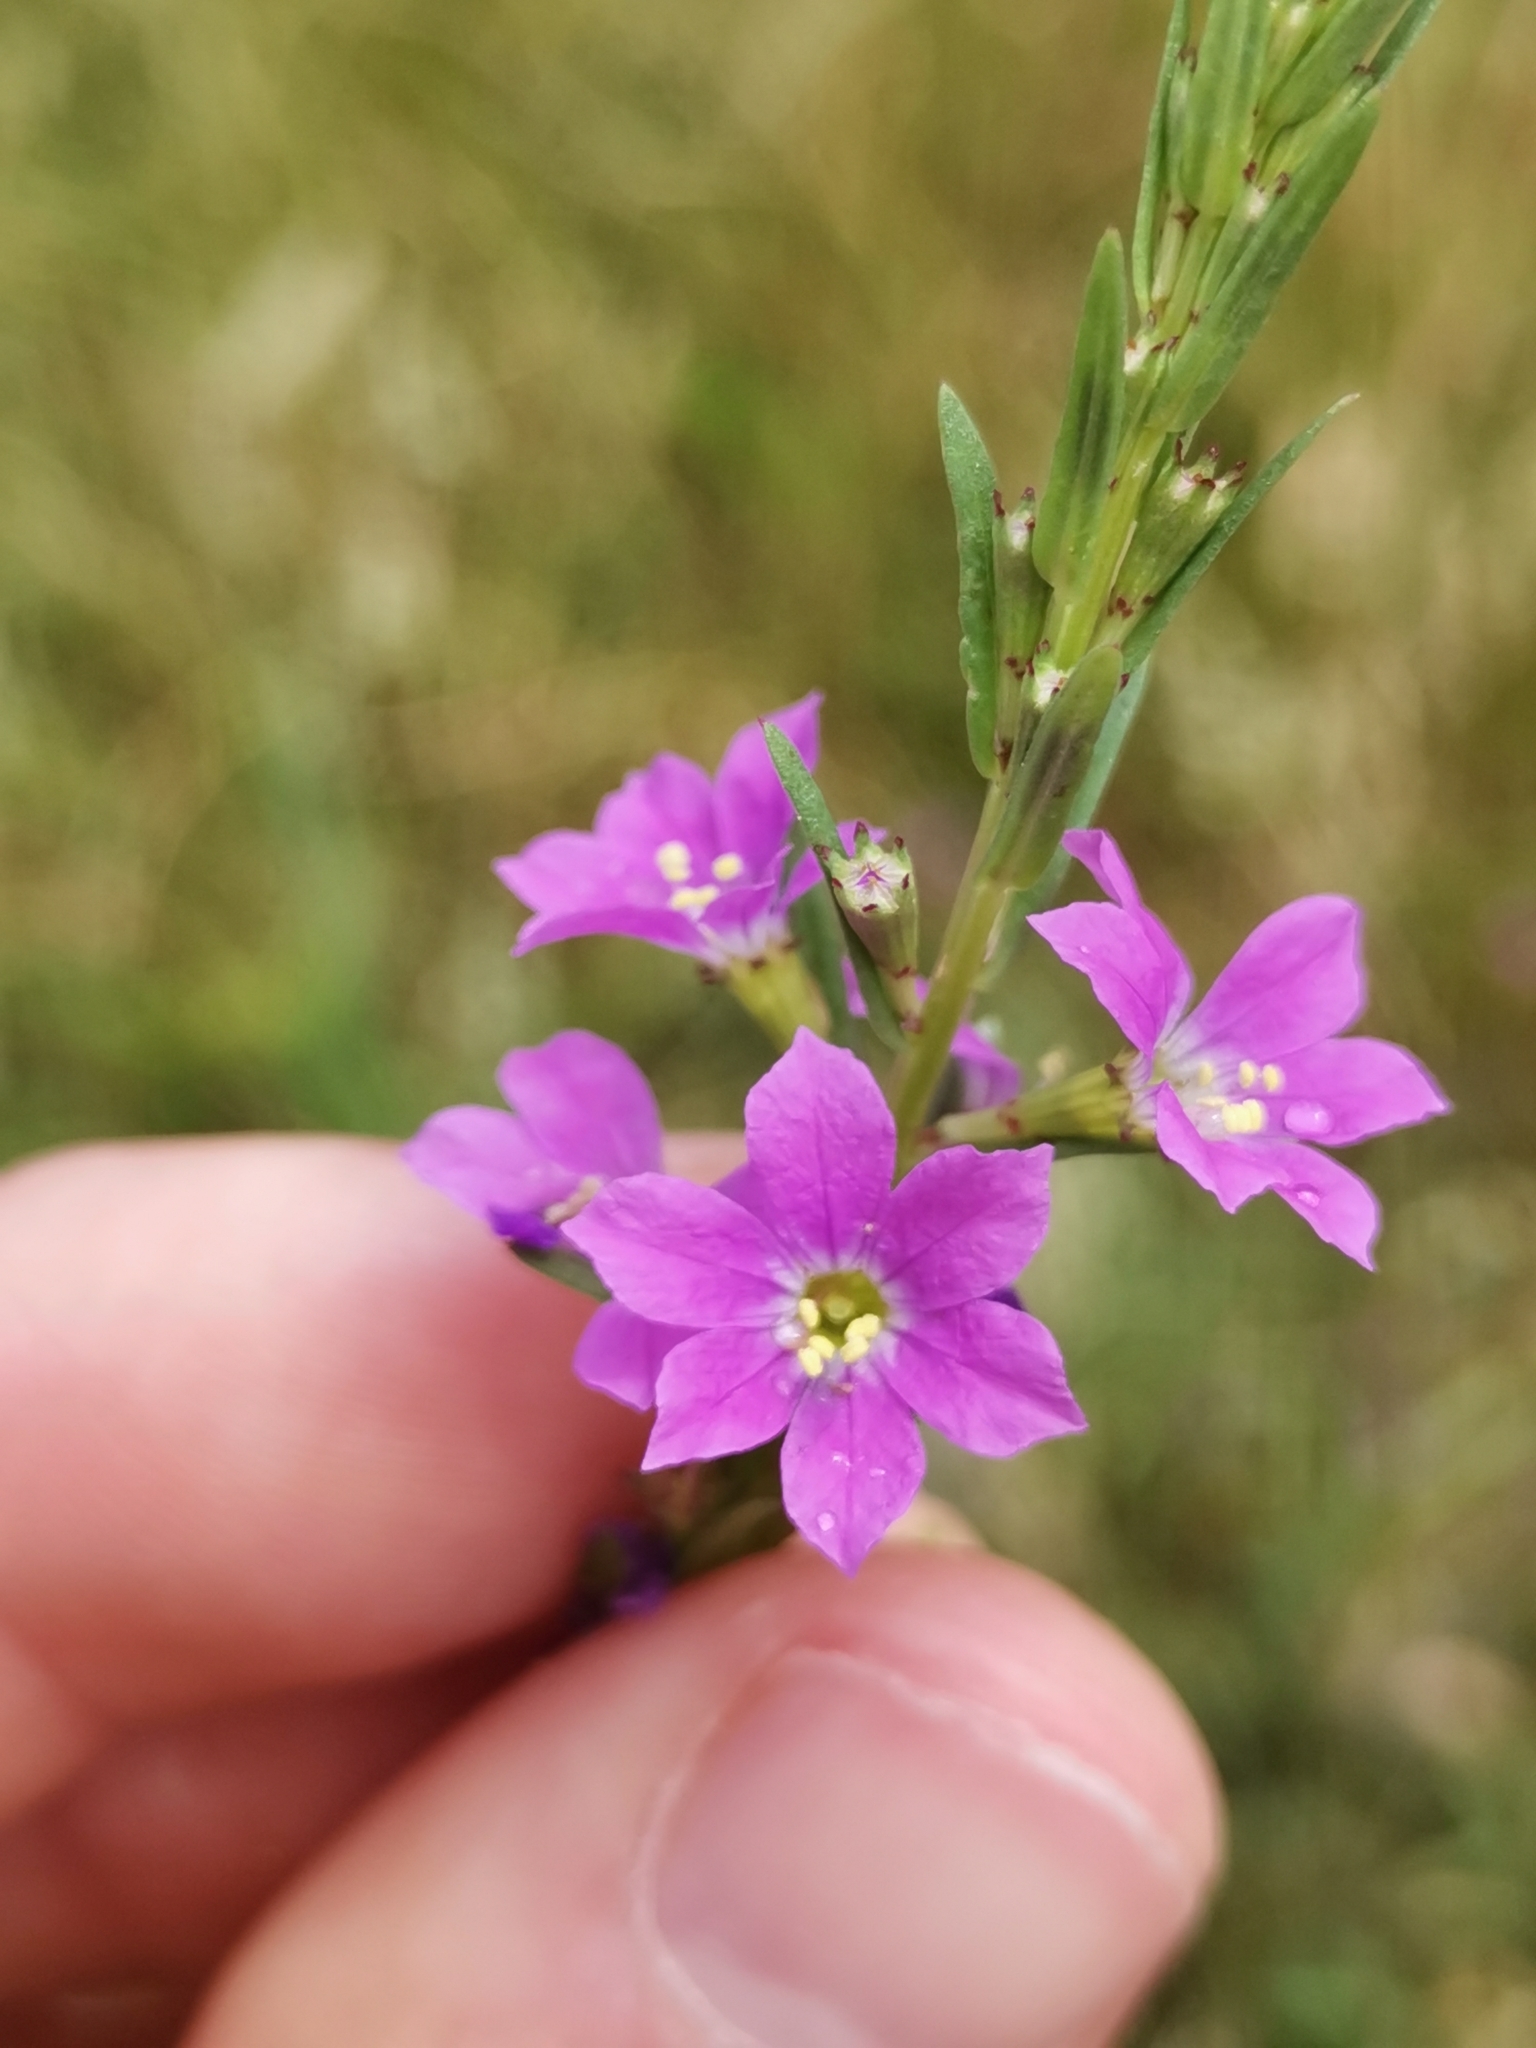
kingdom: Plantae
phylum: Tracheophyta
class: Magnoliopsida
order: Myrtales
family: Lythraceae
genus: Lythrum
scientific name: Lythrum hyssopifolia
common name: Grass-poly
